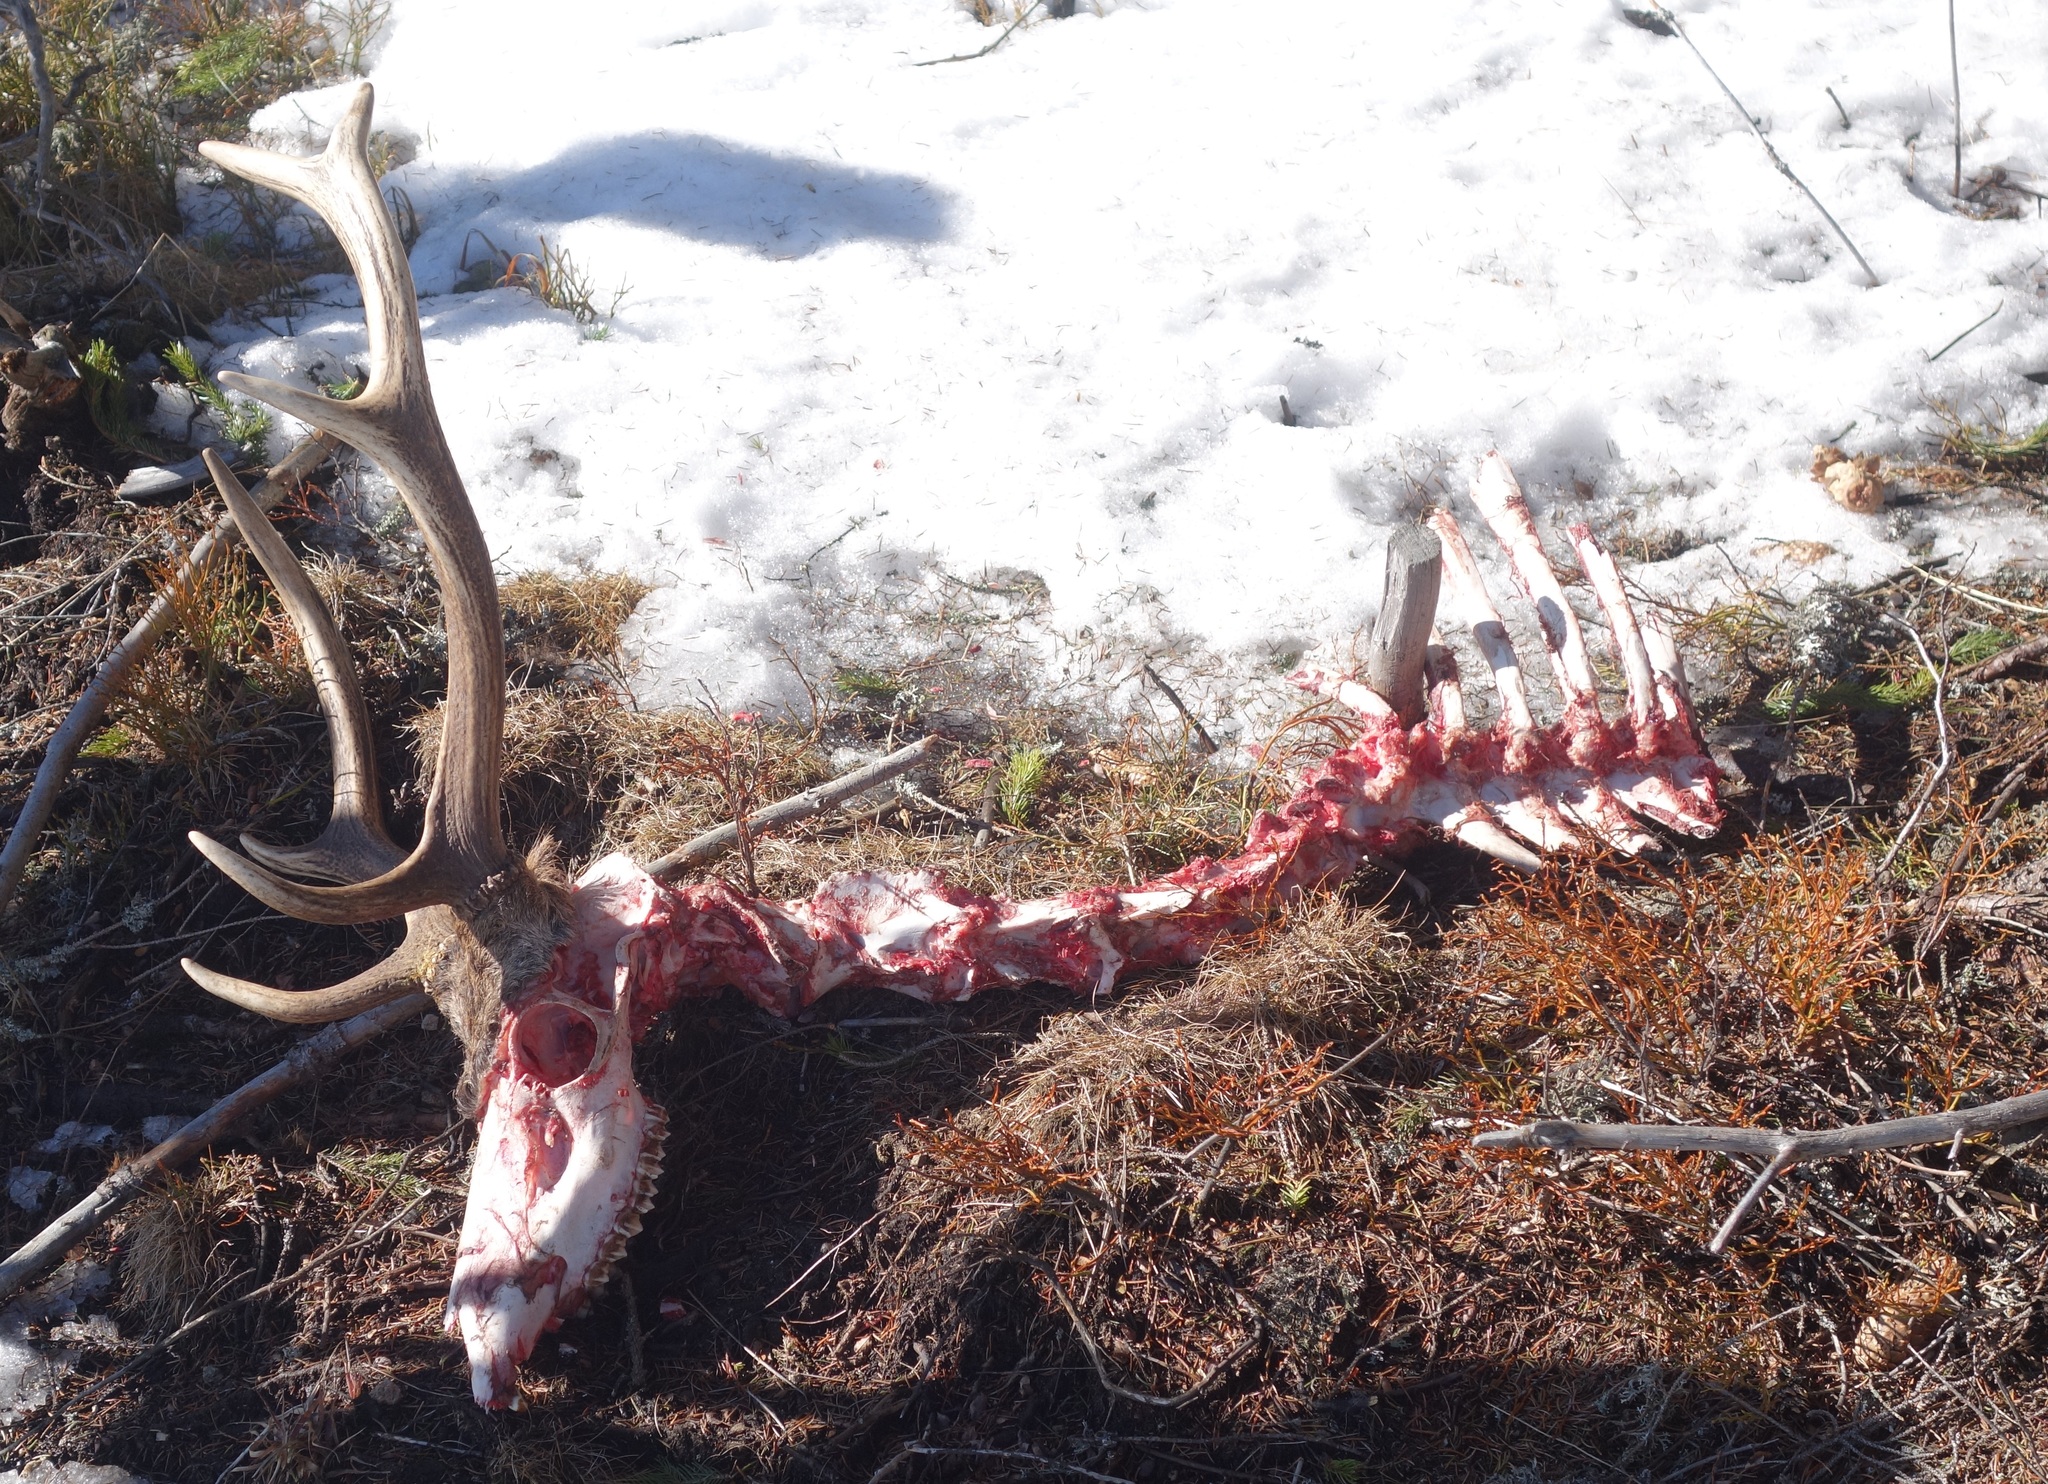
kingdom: Animalia
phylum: Chordata
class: Mammalia
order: Artiodactyla
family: Cervidae
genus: Cervus
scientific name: Cervus elaphus
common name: Red deer
